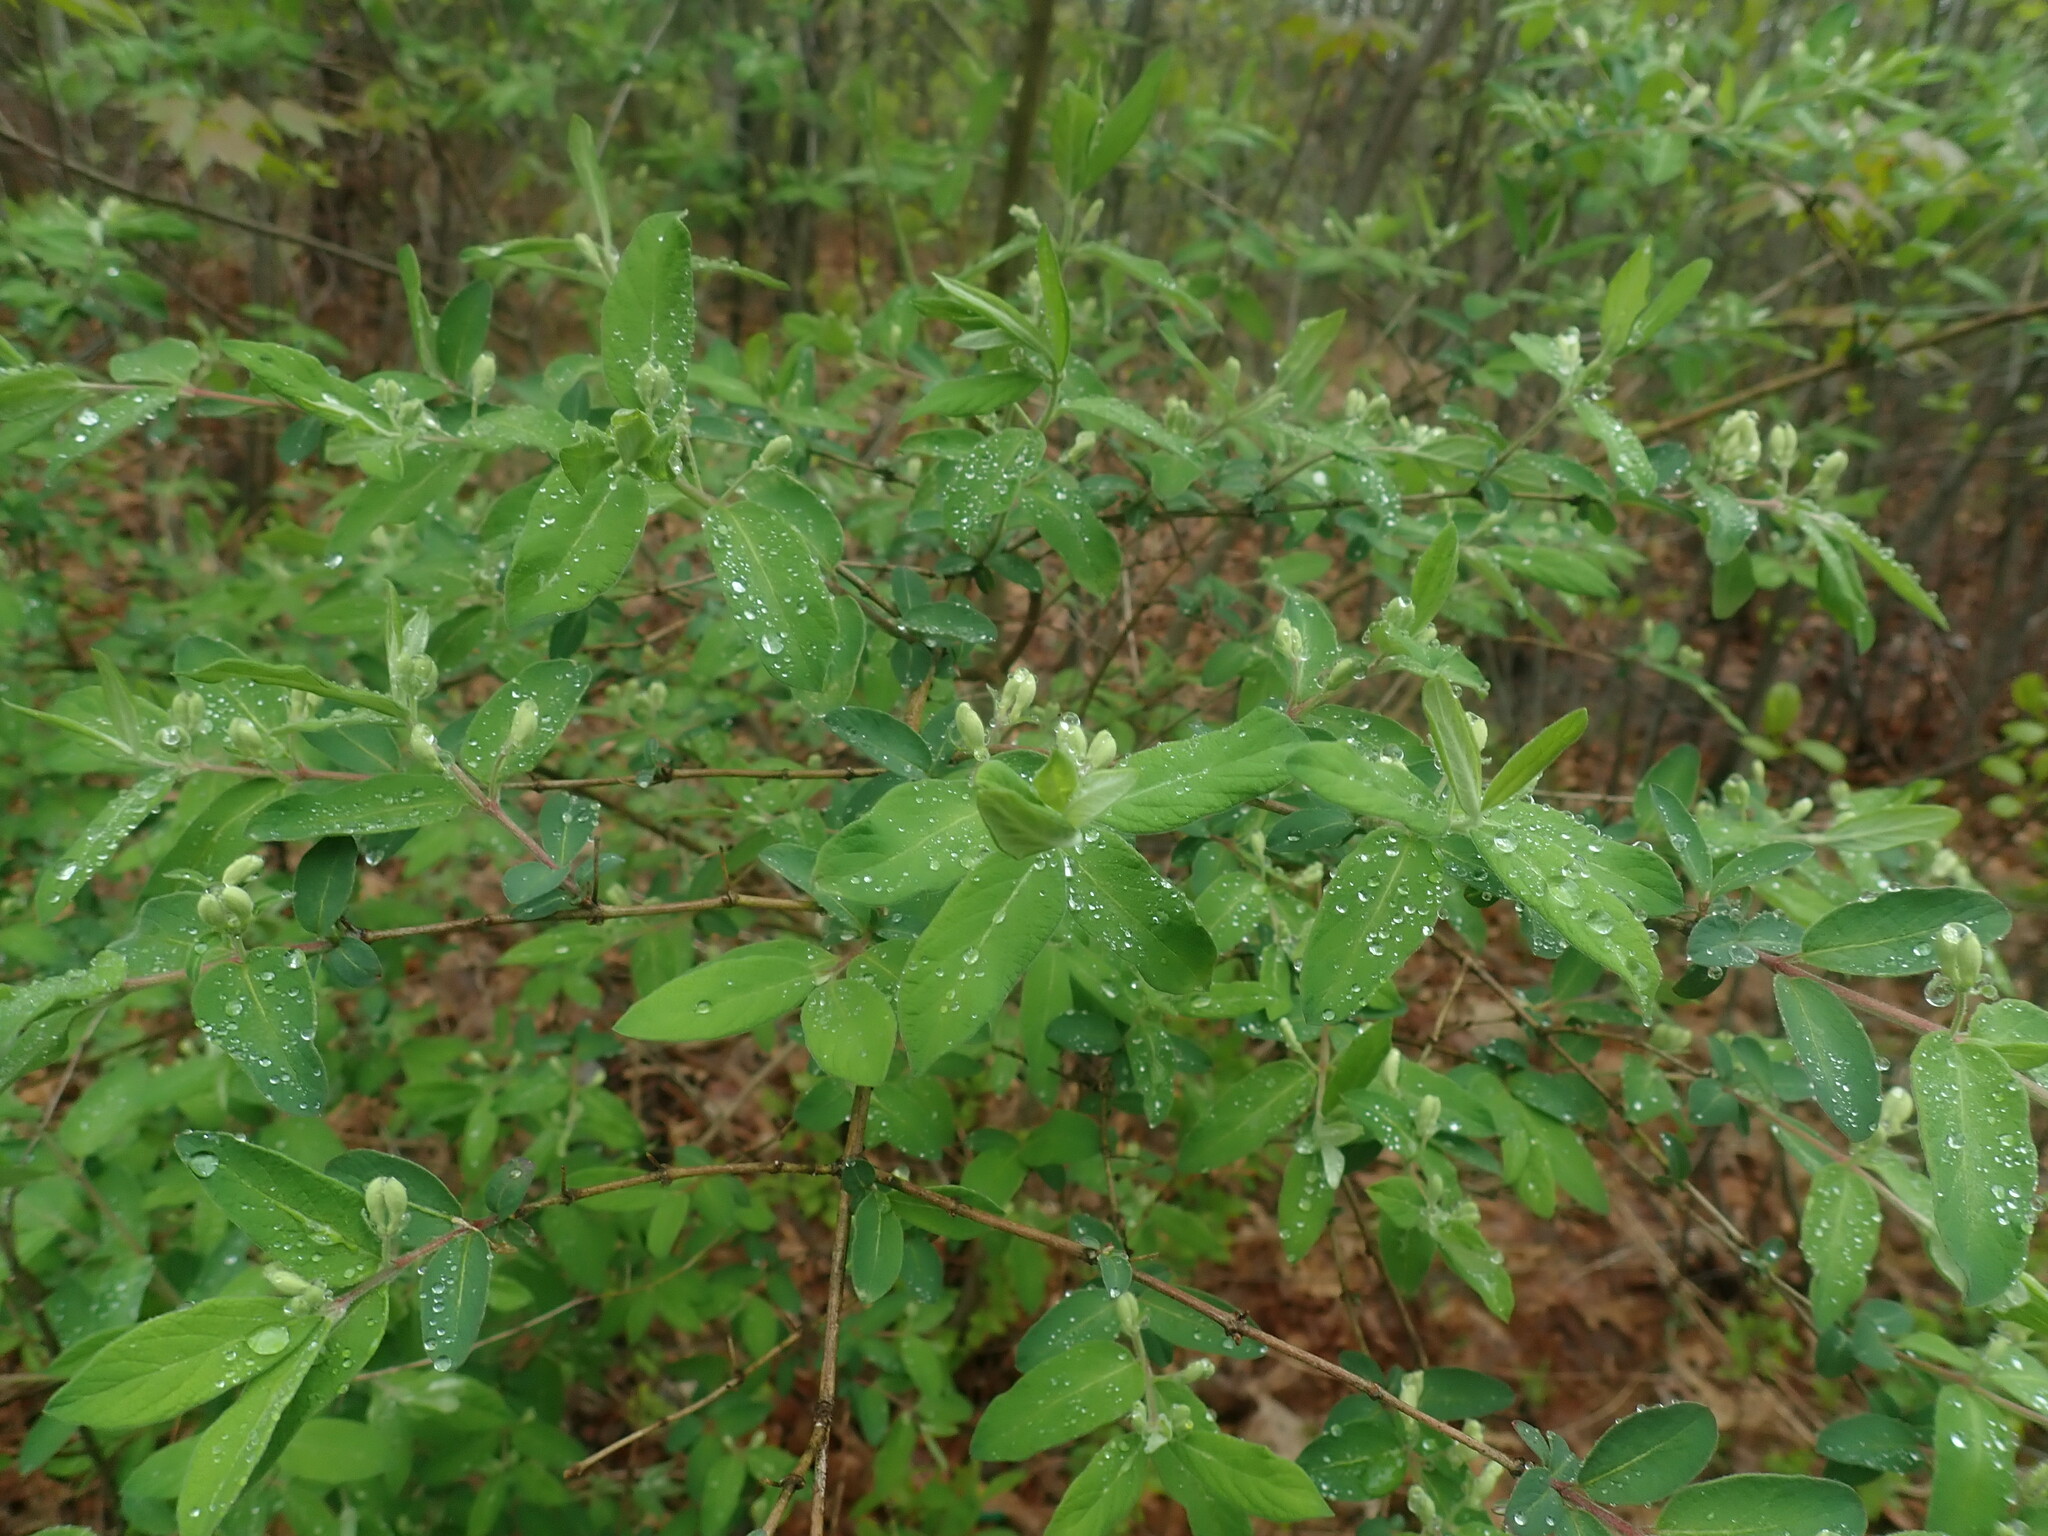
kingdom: Plantae
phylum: Tracheophyta
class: Magnoliopsida
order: Dipsacales
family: Caprifoliaceae
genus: Lonicera
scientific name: Lonicera
